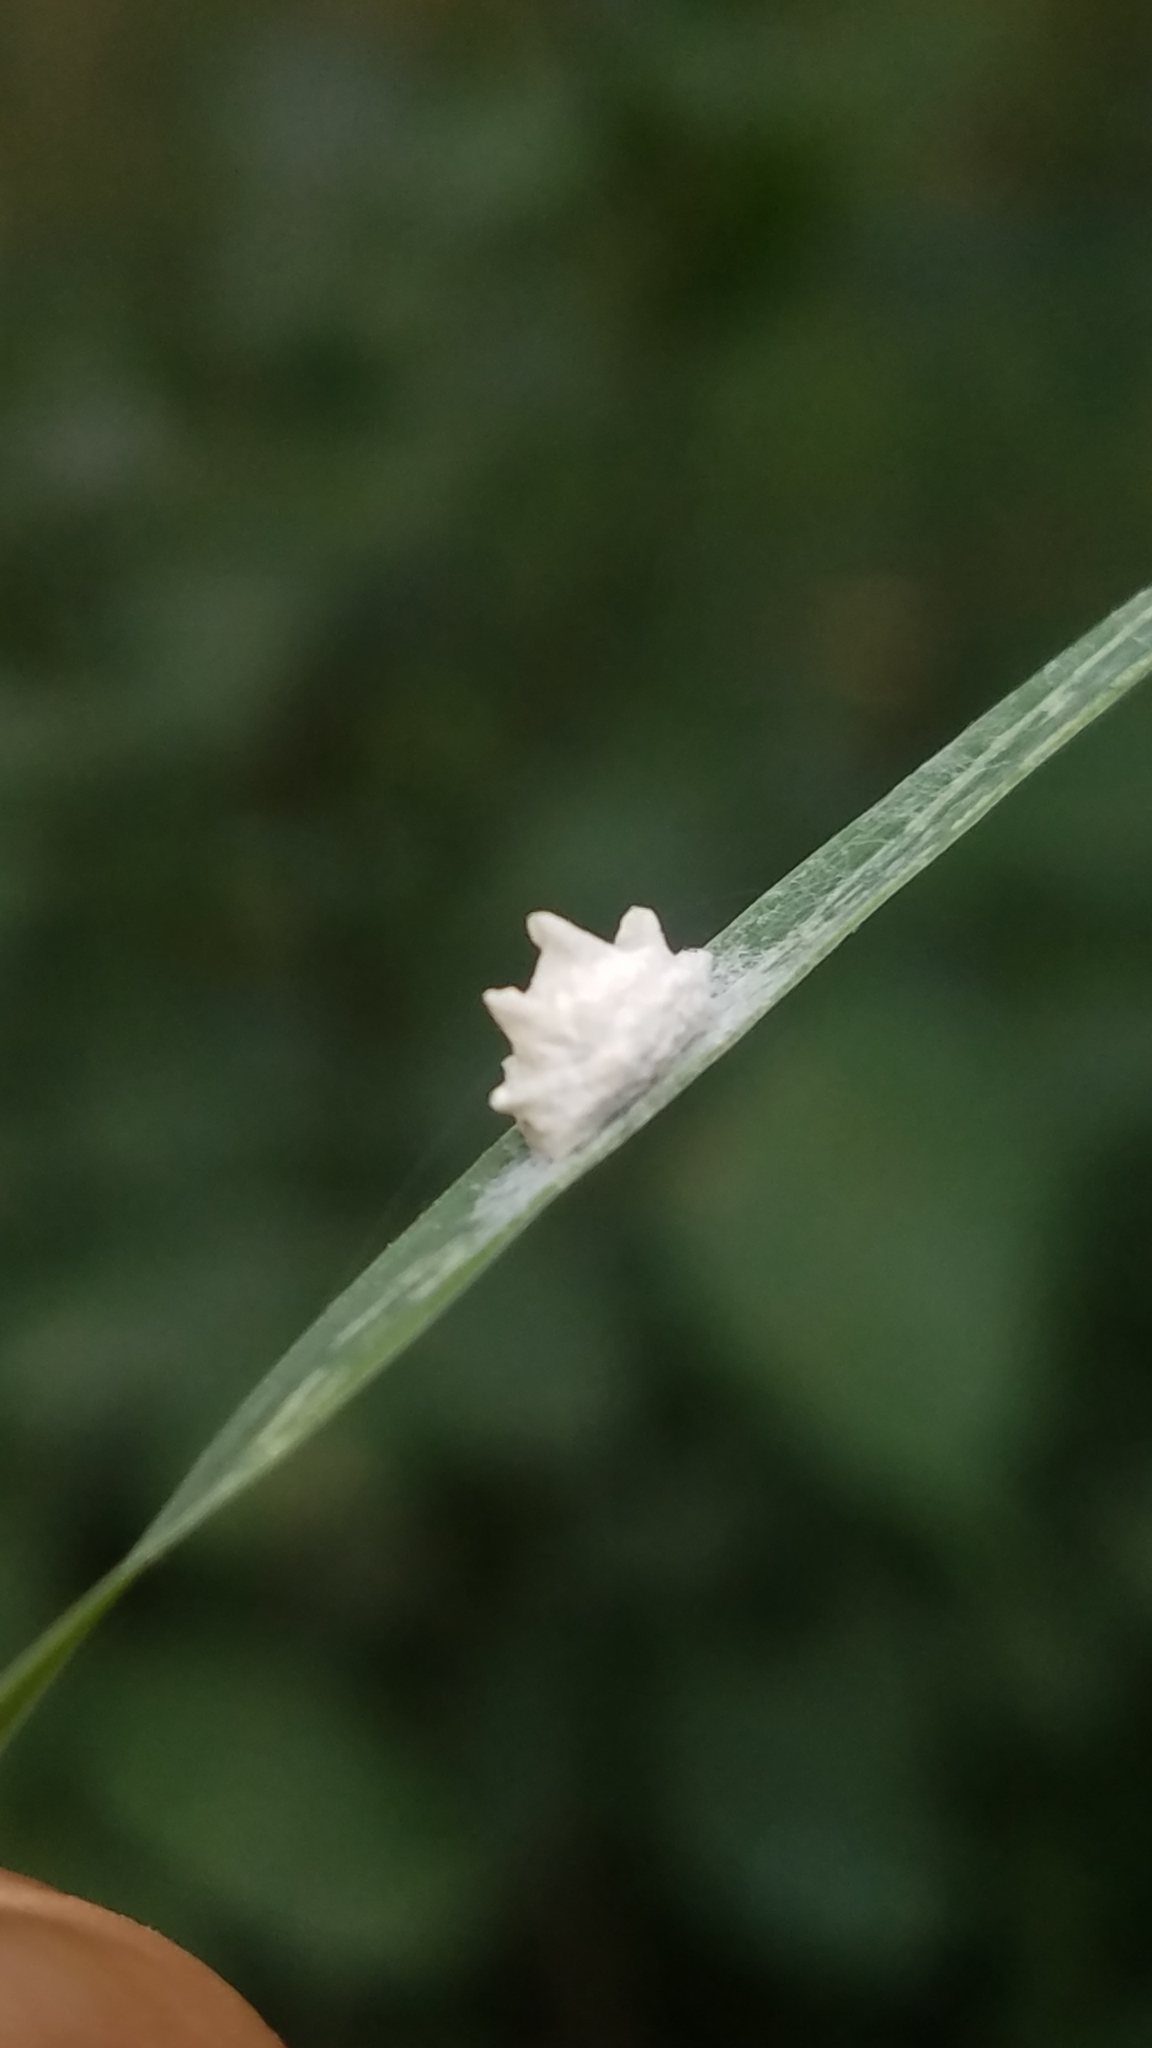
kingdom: Animalia
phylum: Arthropoda
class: Insecta
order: Lepidoptera
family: Epipyropidae
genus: Fulgoraecia
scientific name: Fulgoraecia exigua
